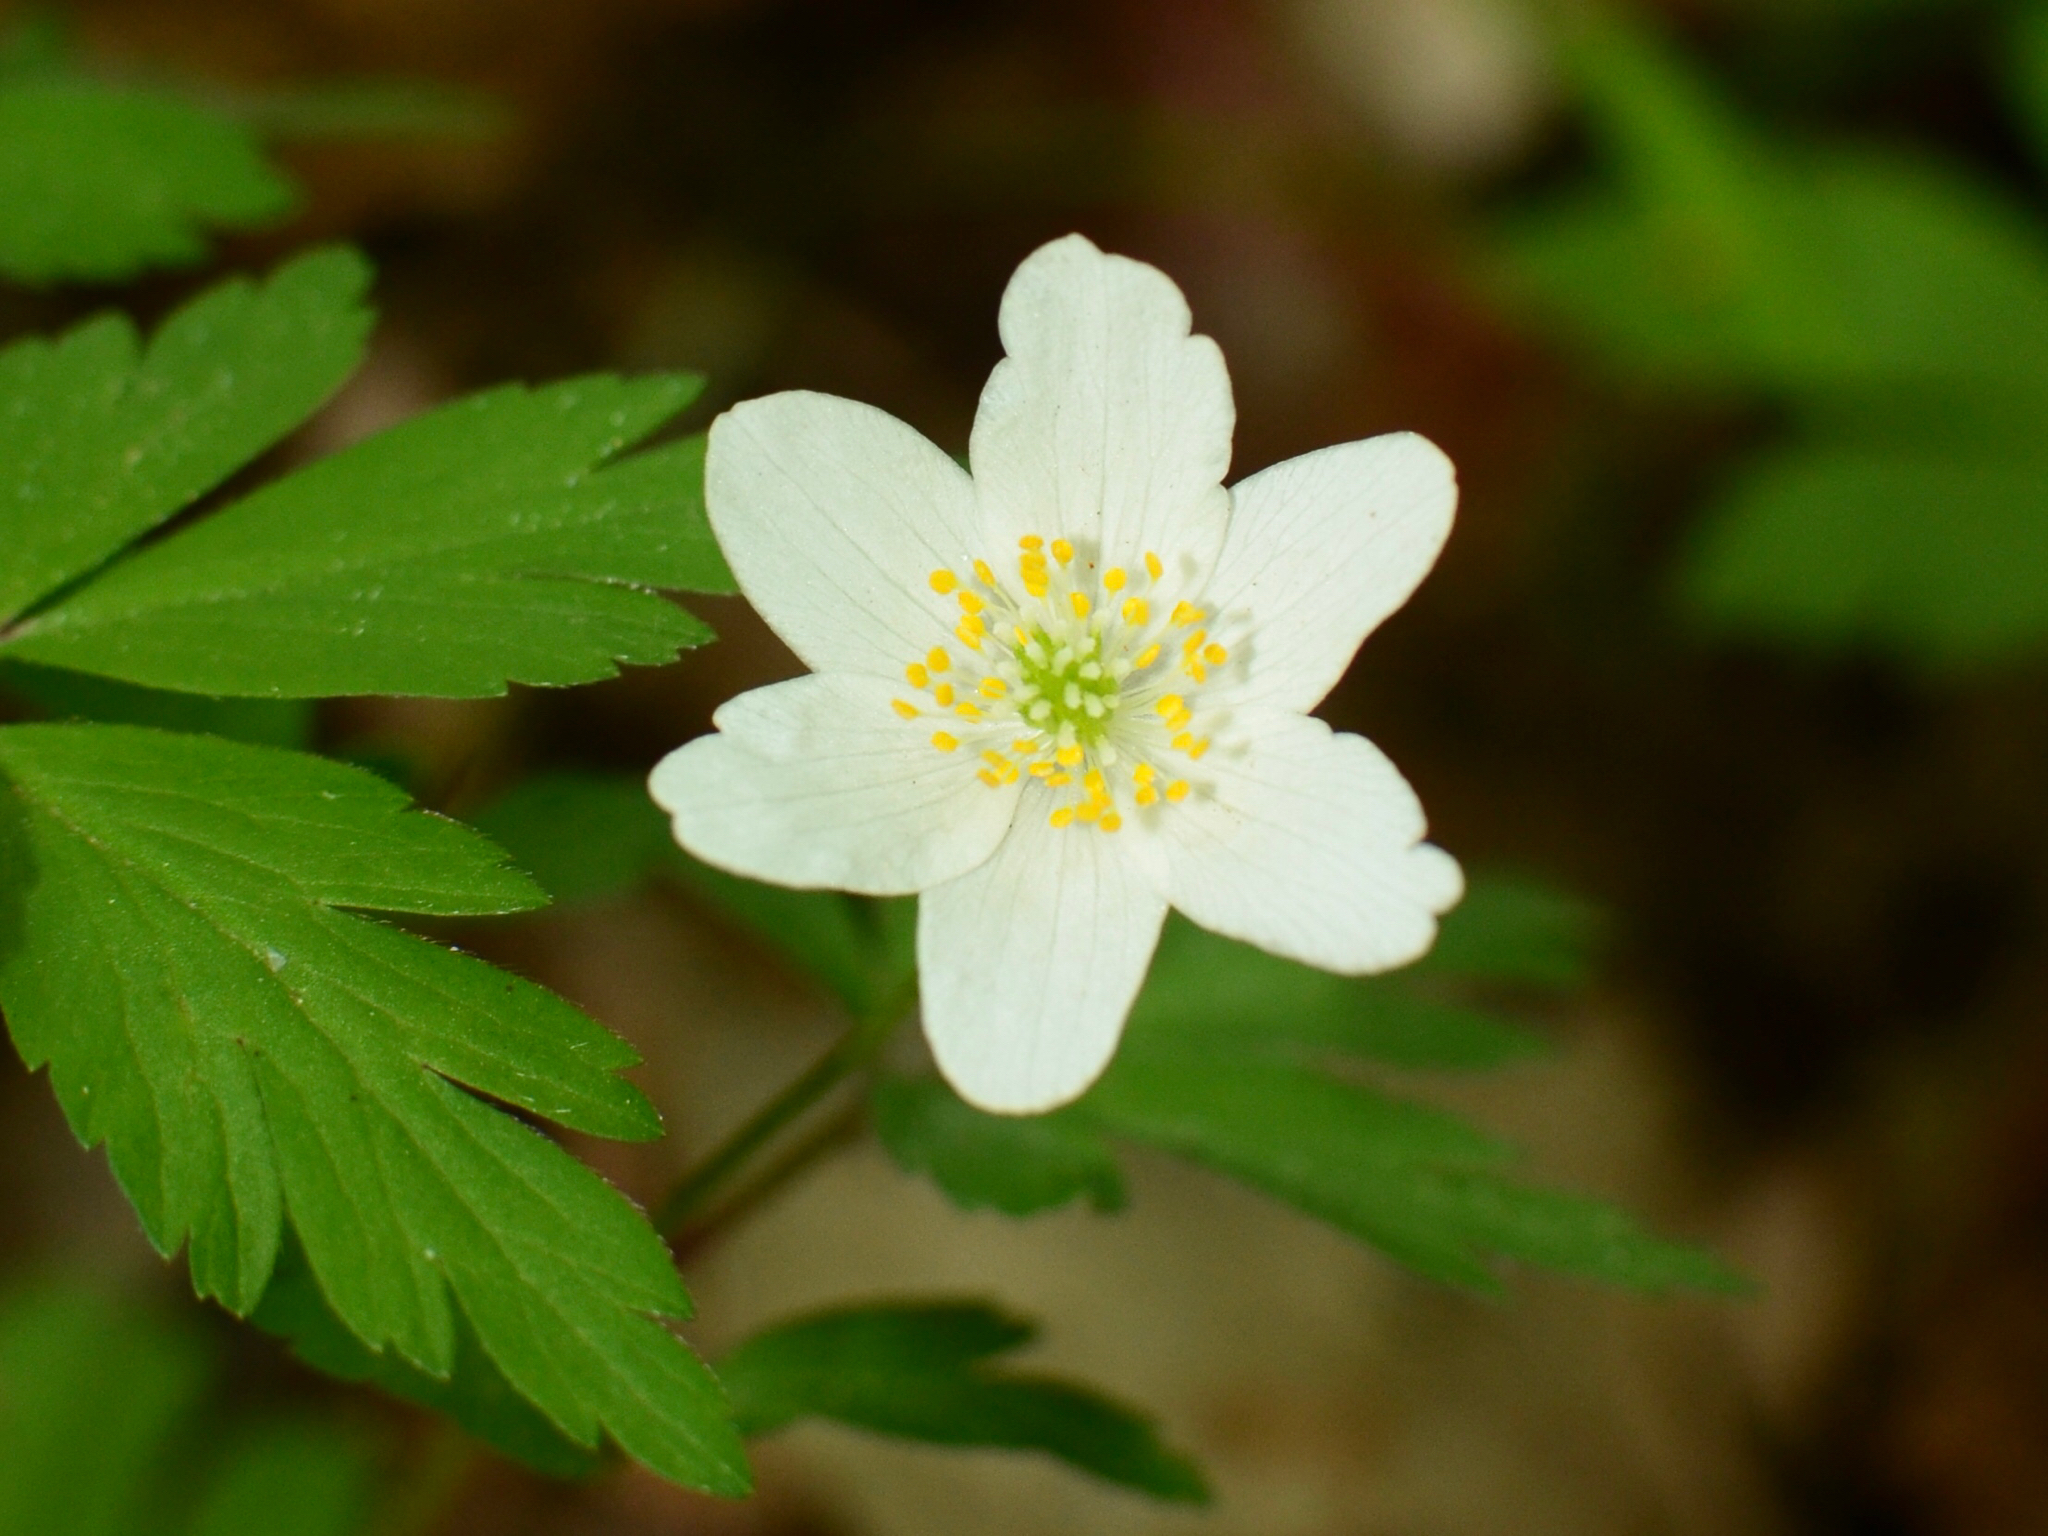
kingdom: Plantae
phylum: Tracheophyta
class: Magnoliopsida
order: Ranunculales
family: Ranunculaceae
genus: Anemone
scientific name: Anemone nemorosa
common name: Wood anemone
